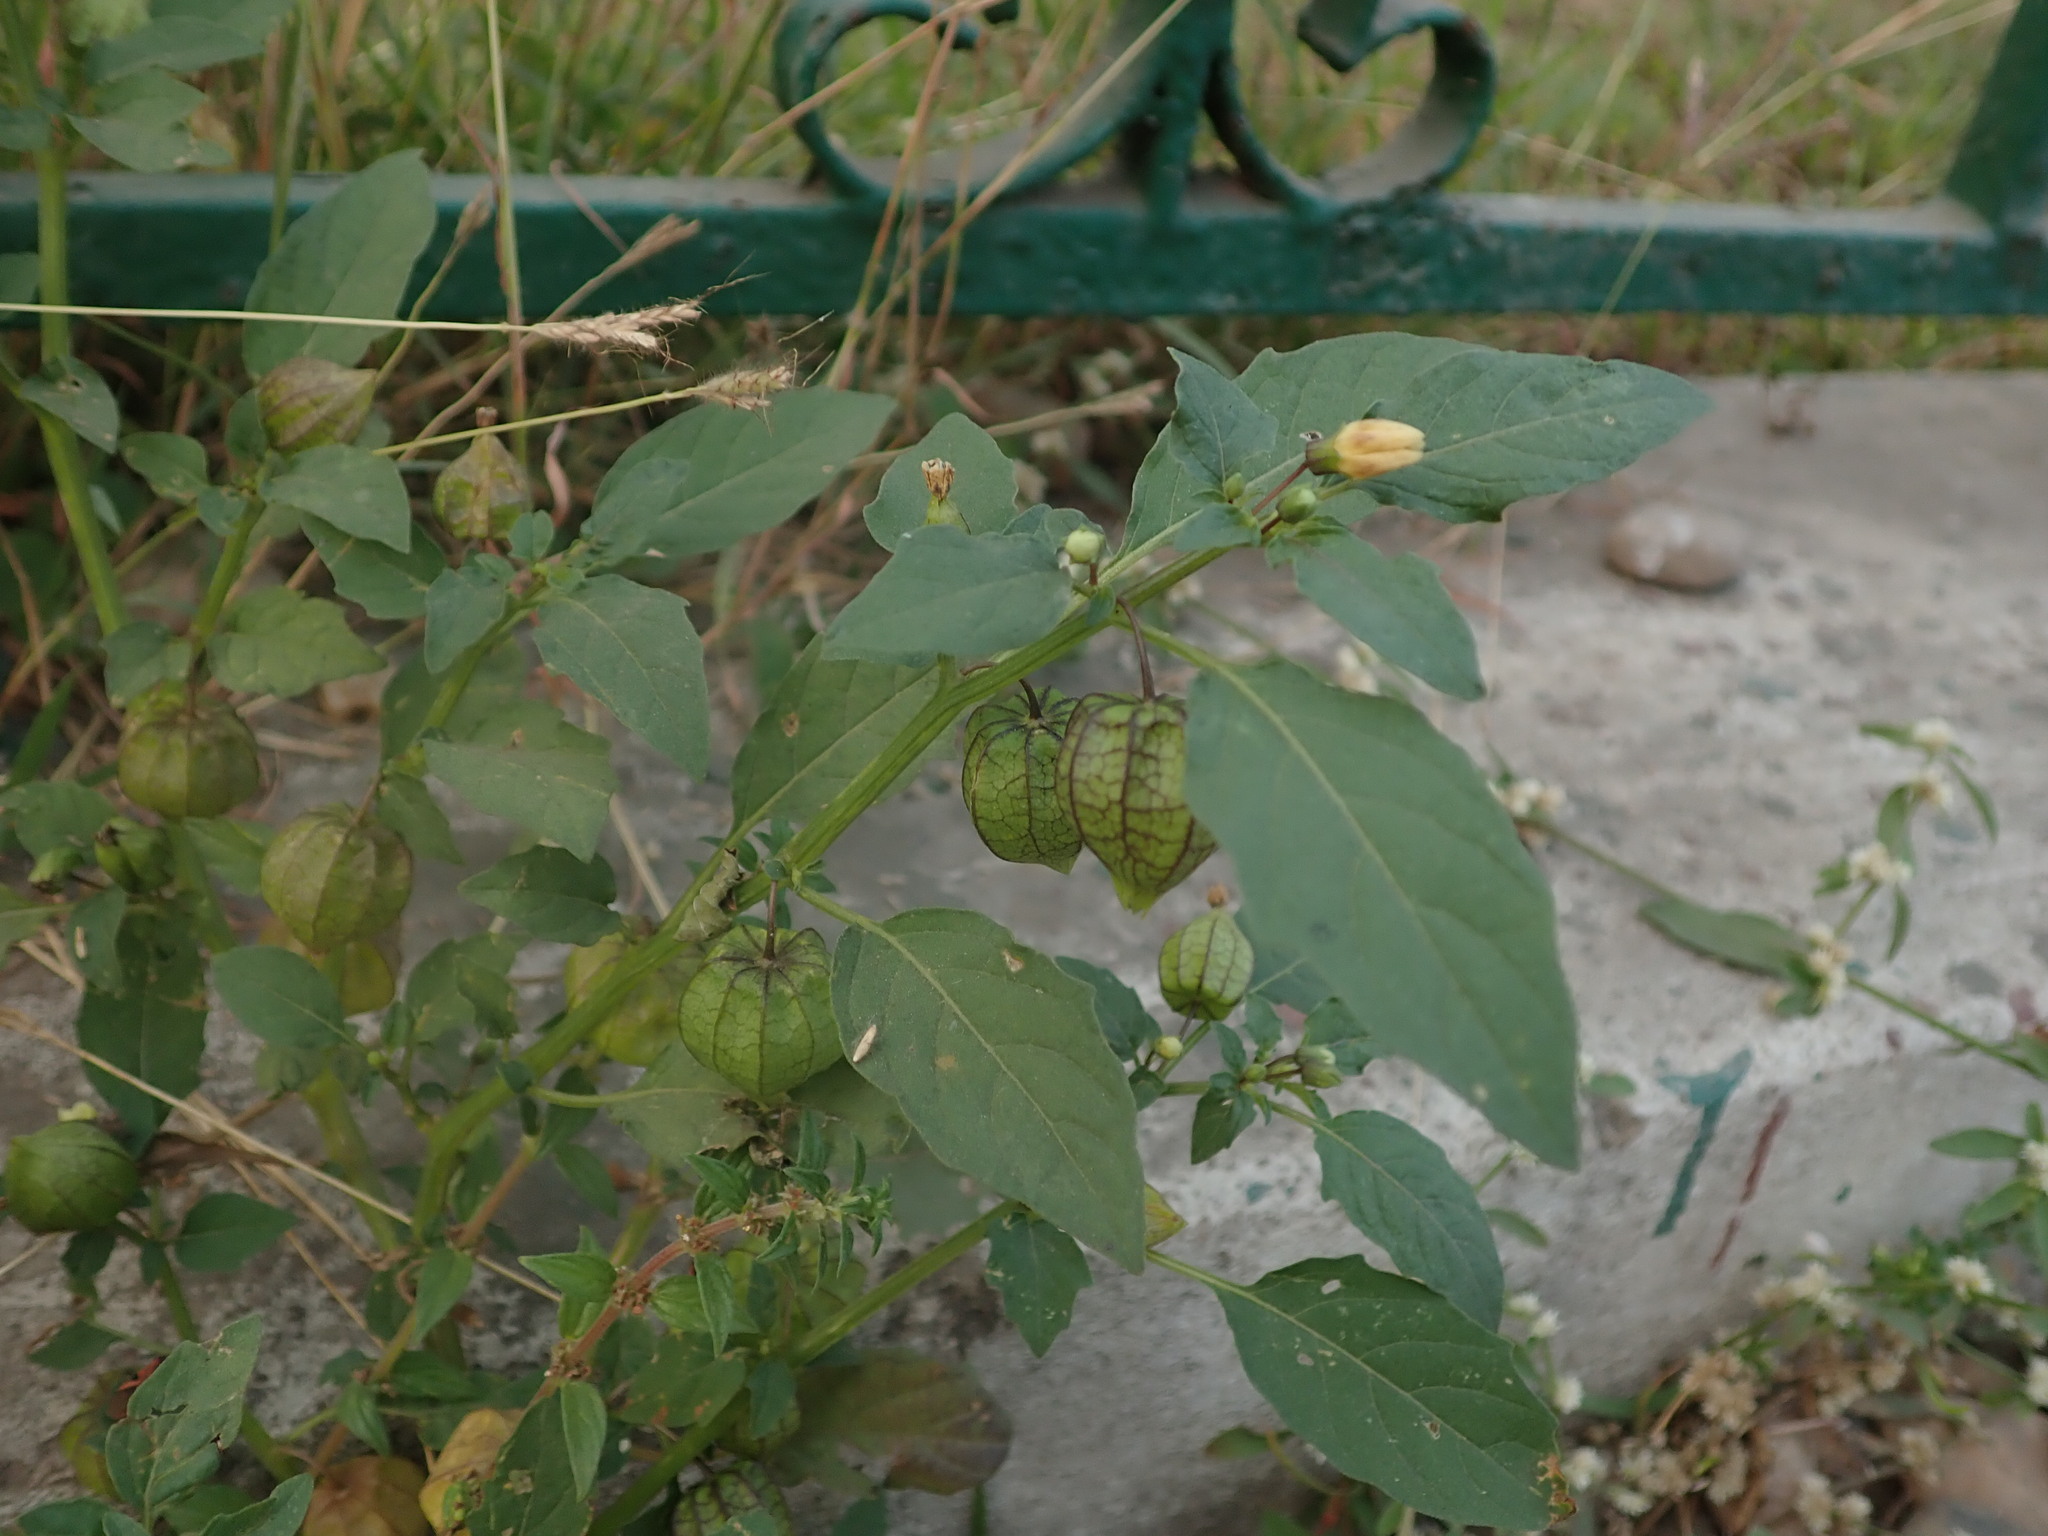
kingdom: Plantae
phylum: Tracheophyta
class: Magnoliopsida
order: Solanales
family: Solanaceae
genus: Physalis
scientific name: Physalis angulata
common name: Angular winter-cherry
